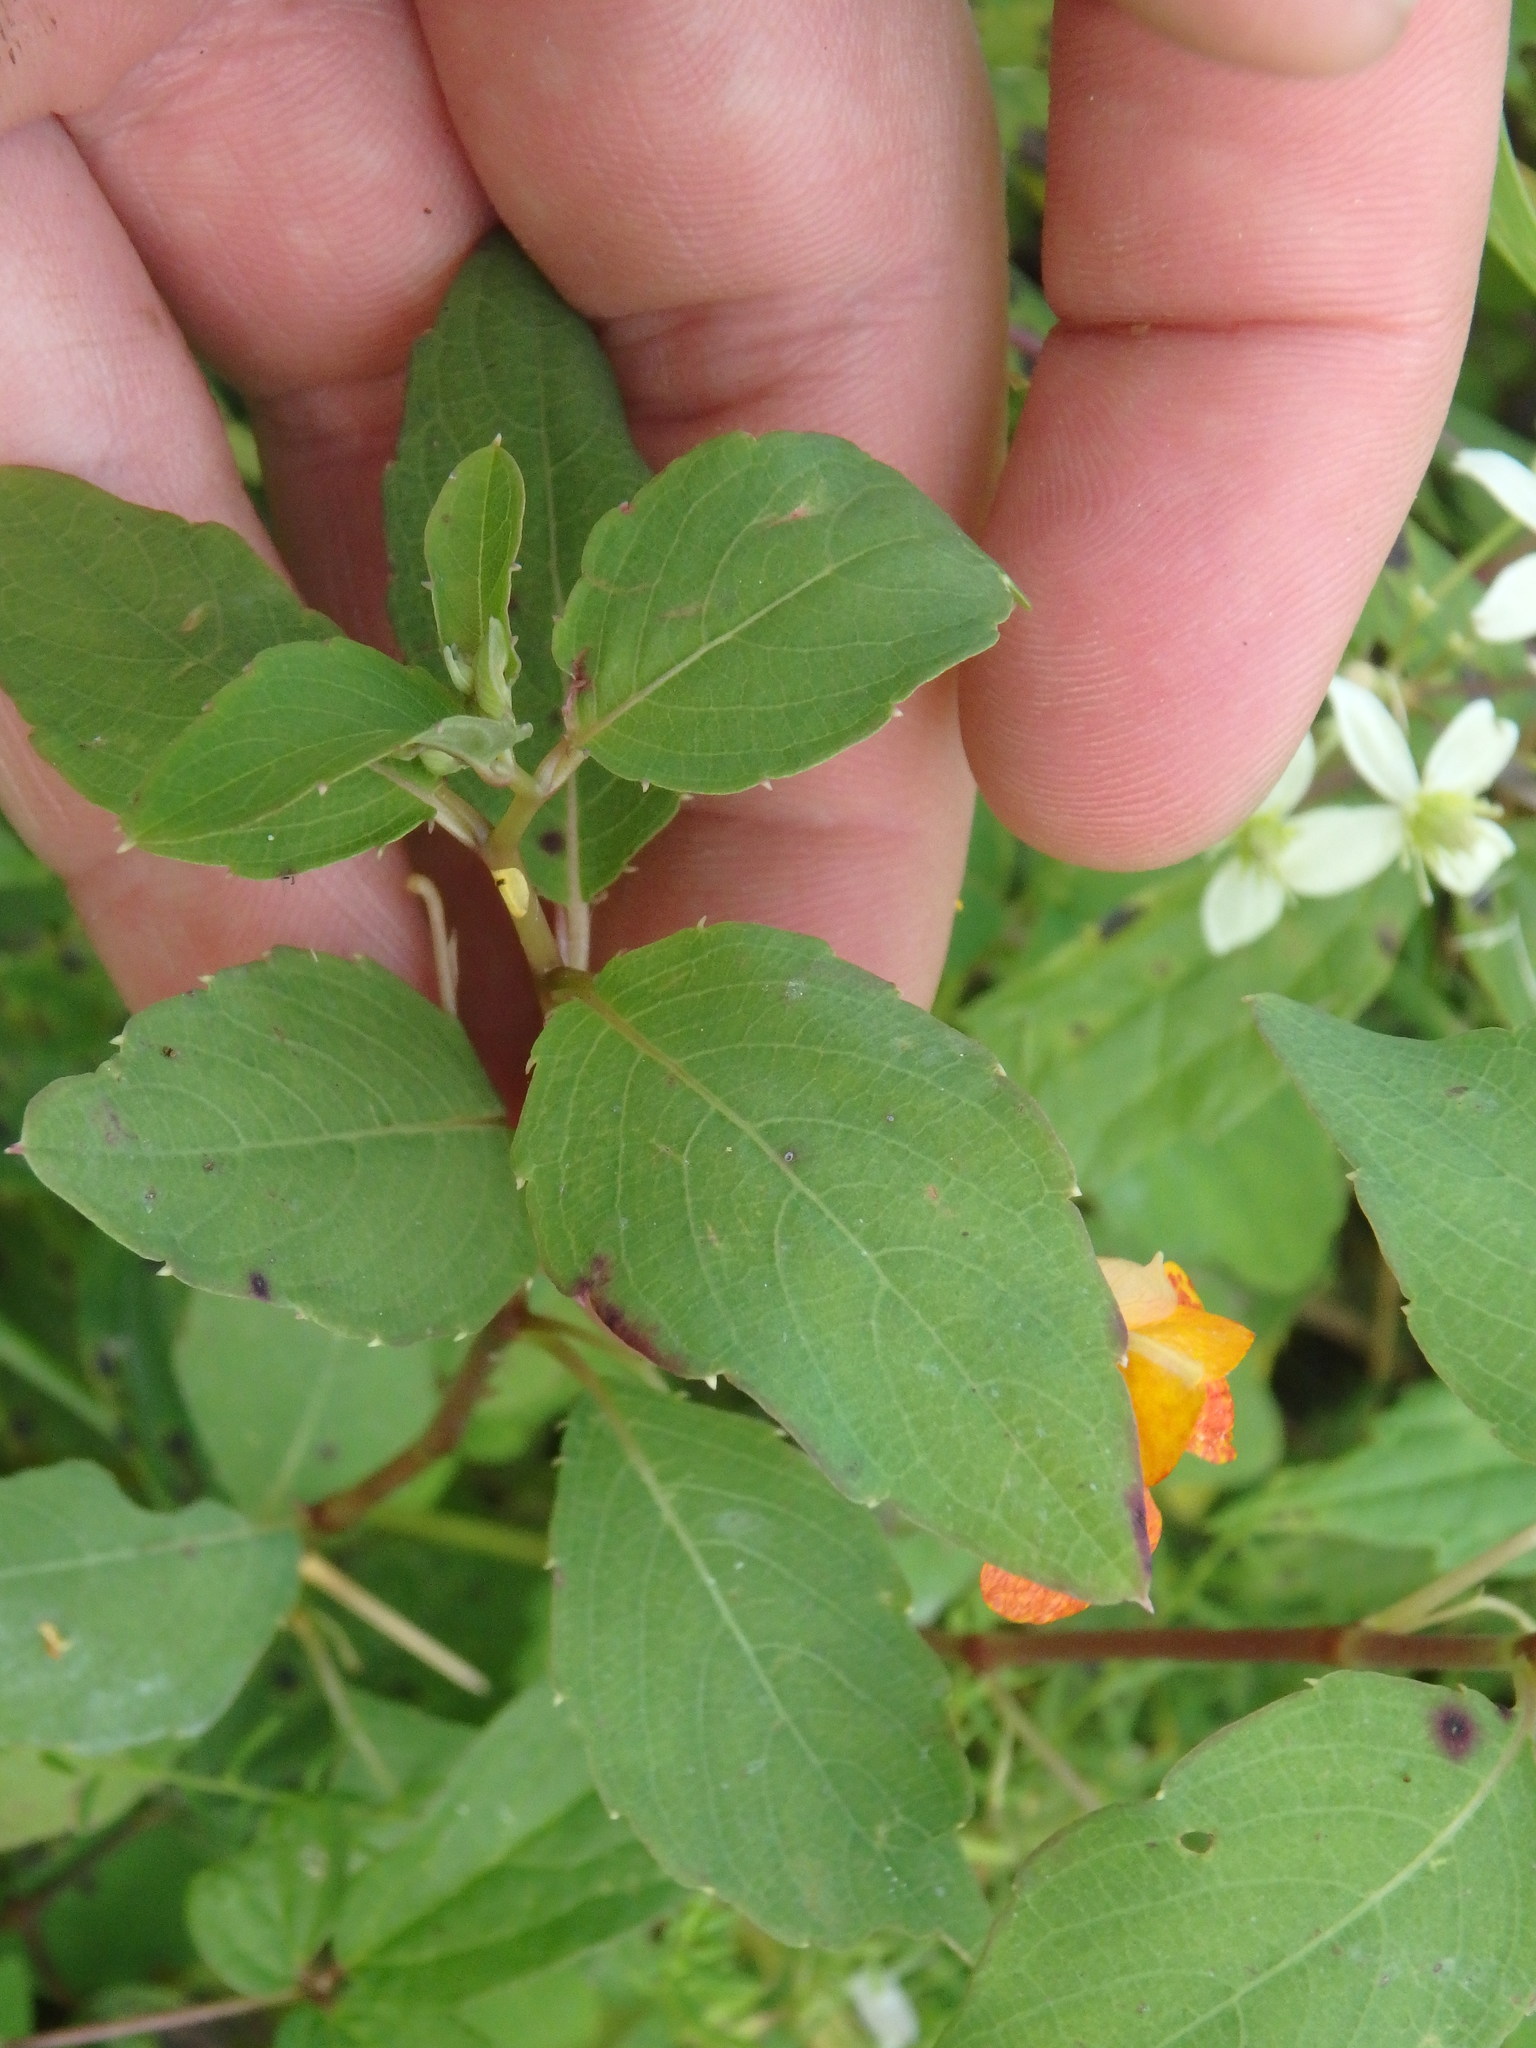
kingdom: Plantae
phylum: Tracheophyta
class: Magnoliopsida
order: Ericales
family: Balsaminaceae
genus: Impatiens
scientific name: Impatiens capensis
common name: Orange balsam
